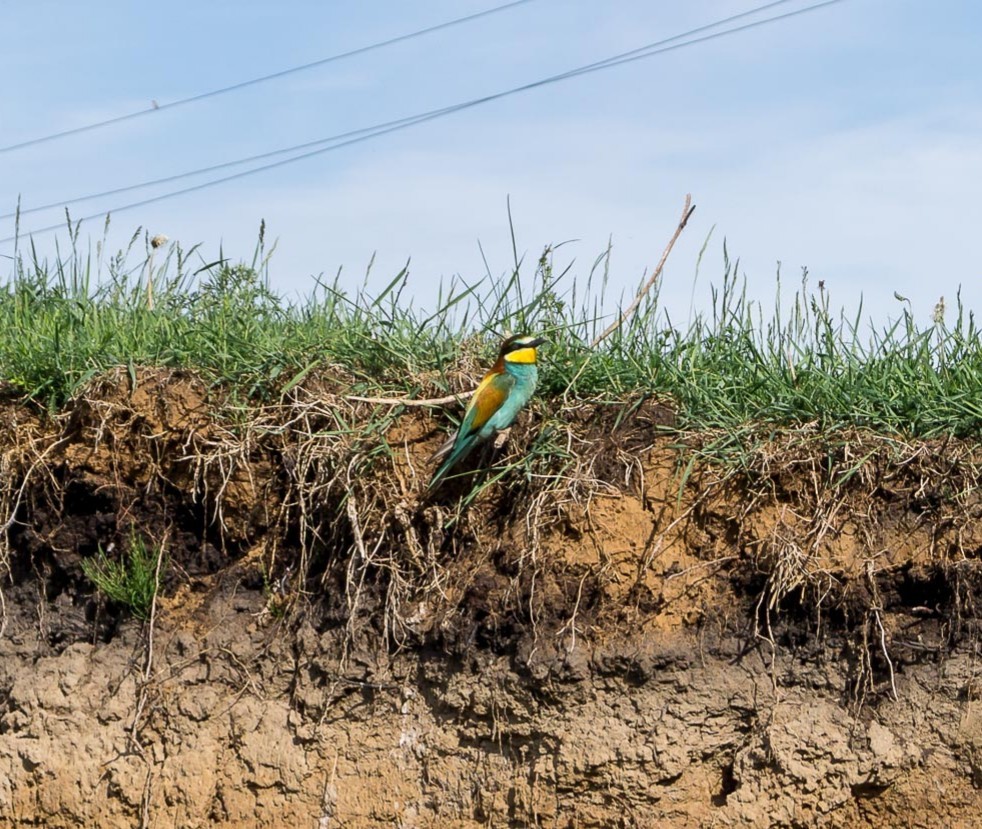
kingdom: Animalia
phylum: Chordata
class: Aves
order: Coraciiformes
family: Meropidae
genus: Merops
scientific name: Merops apiaster
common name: European bee-eater
